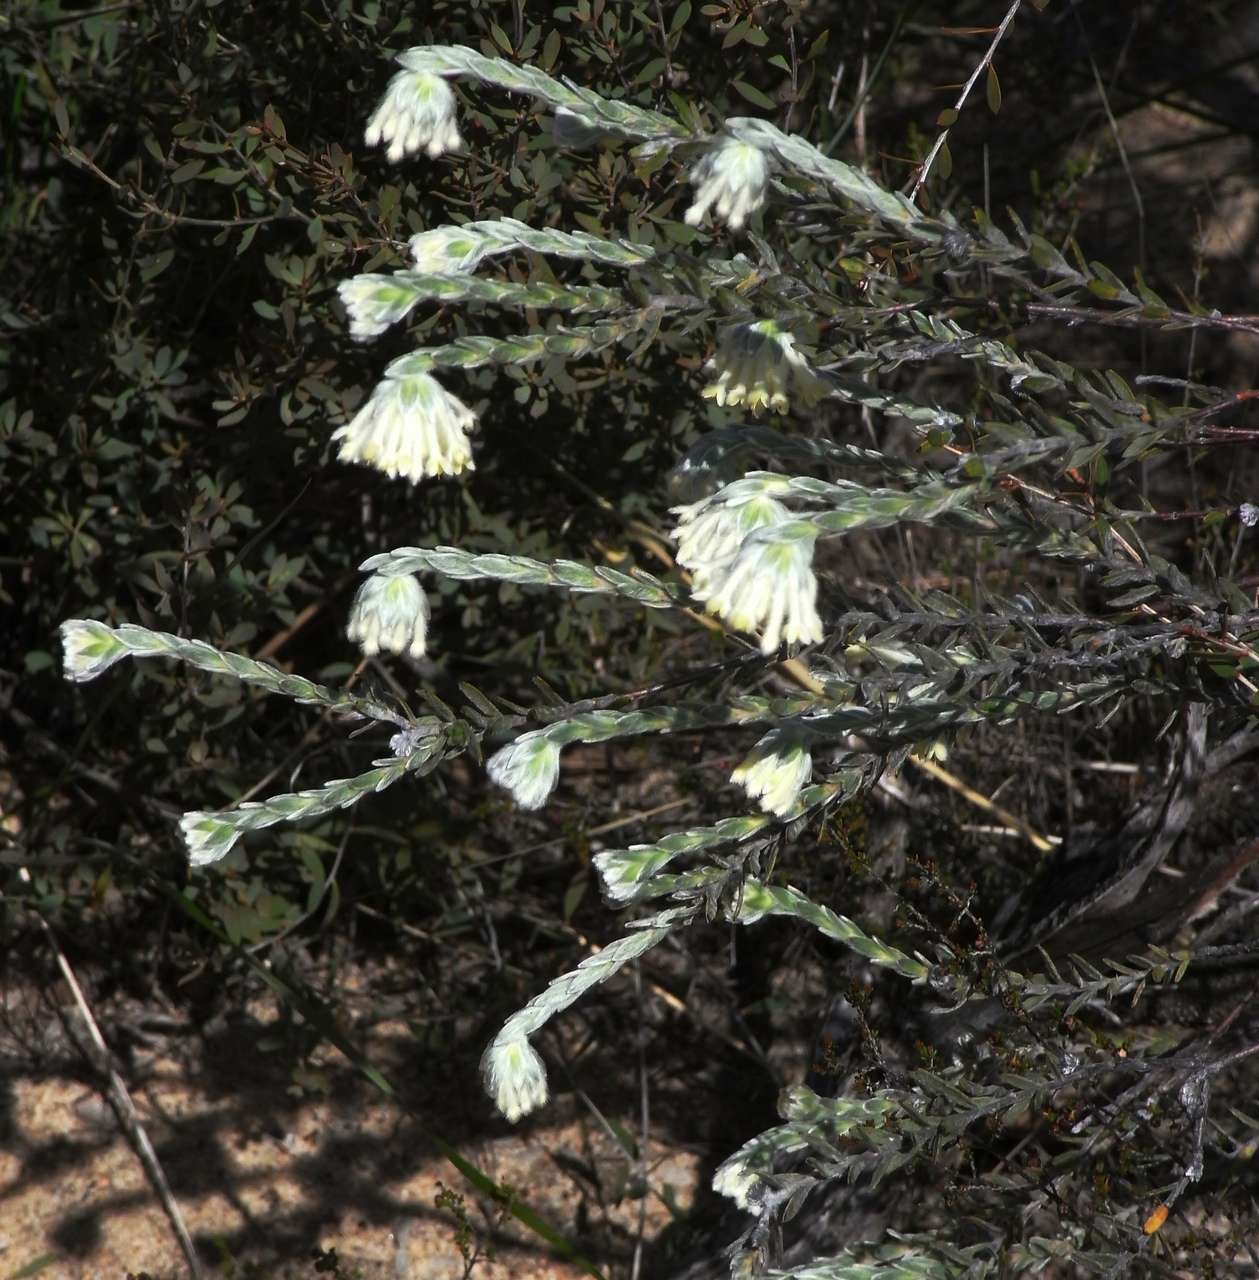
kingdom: Plantae
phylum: Tracheophyta
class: Magnoliopsida
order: Malvales
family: Thymelaeaceae
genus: Pimelea
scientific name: Pimelea octophylla
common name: Woolly riceflower
